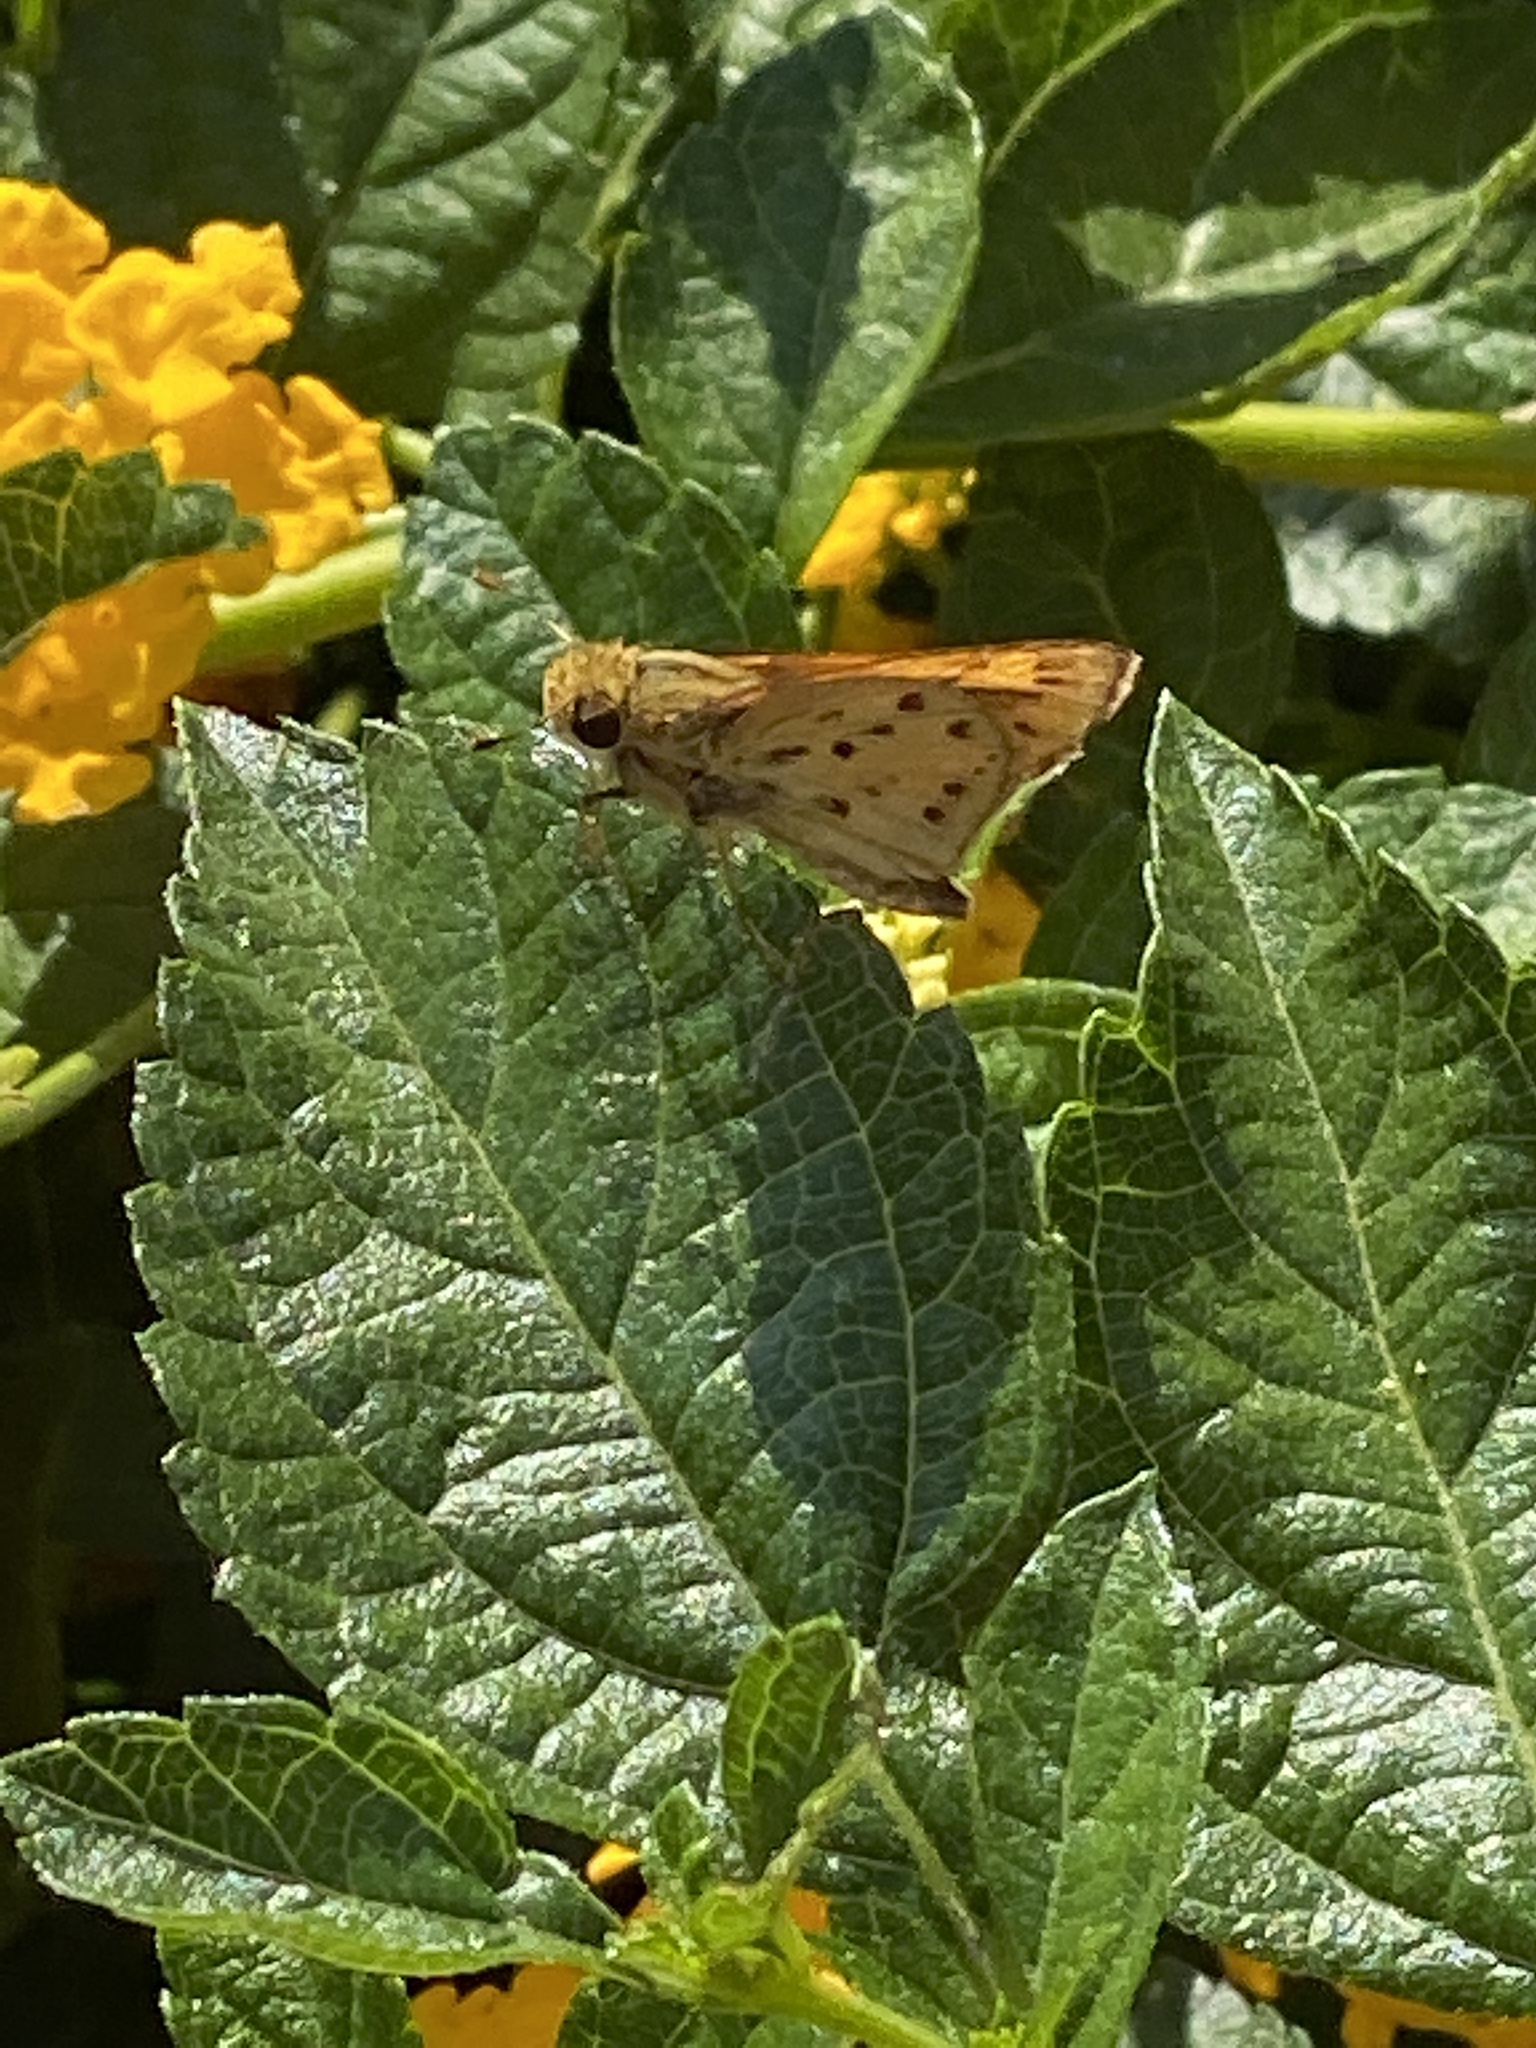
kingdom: Animalia
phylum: Arthropoda
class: Insecta
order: Lepidoptera
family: Hesperiidae
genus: Hylephila
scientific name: Hylephila phyleus
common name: Fiery skipper
